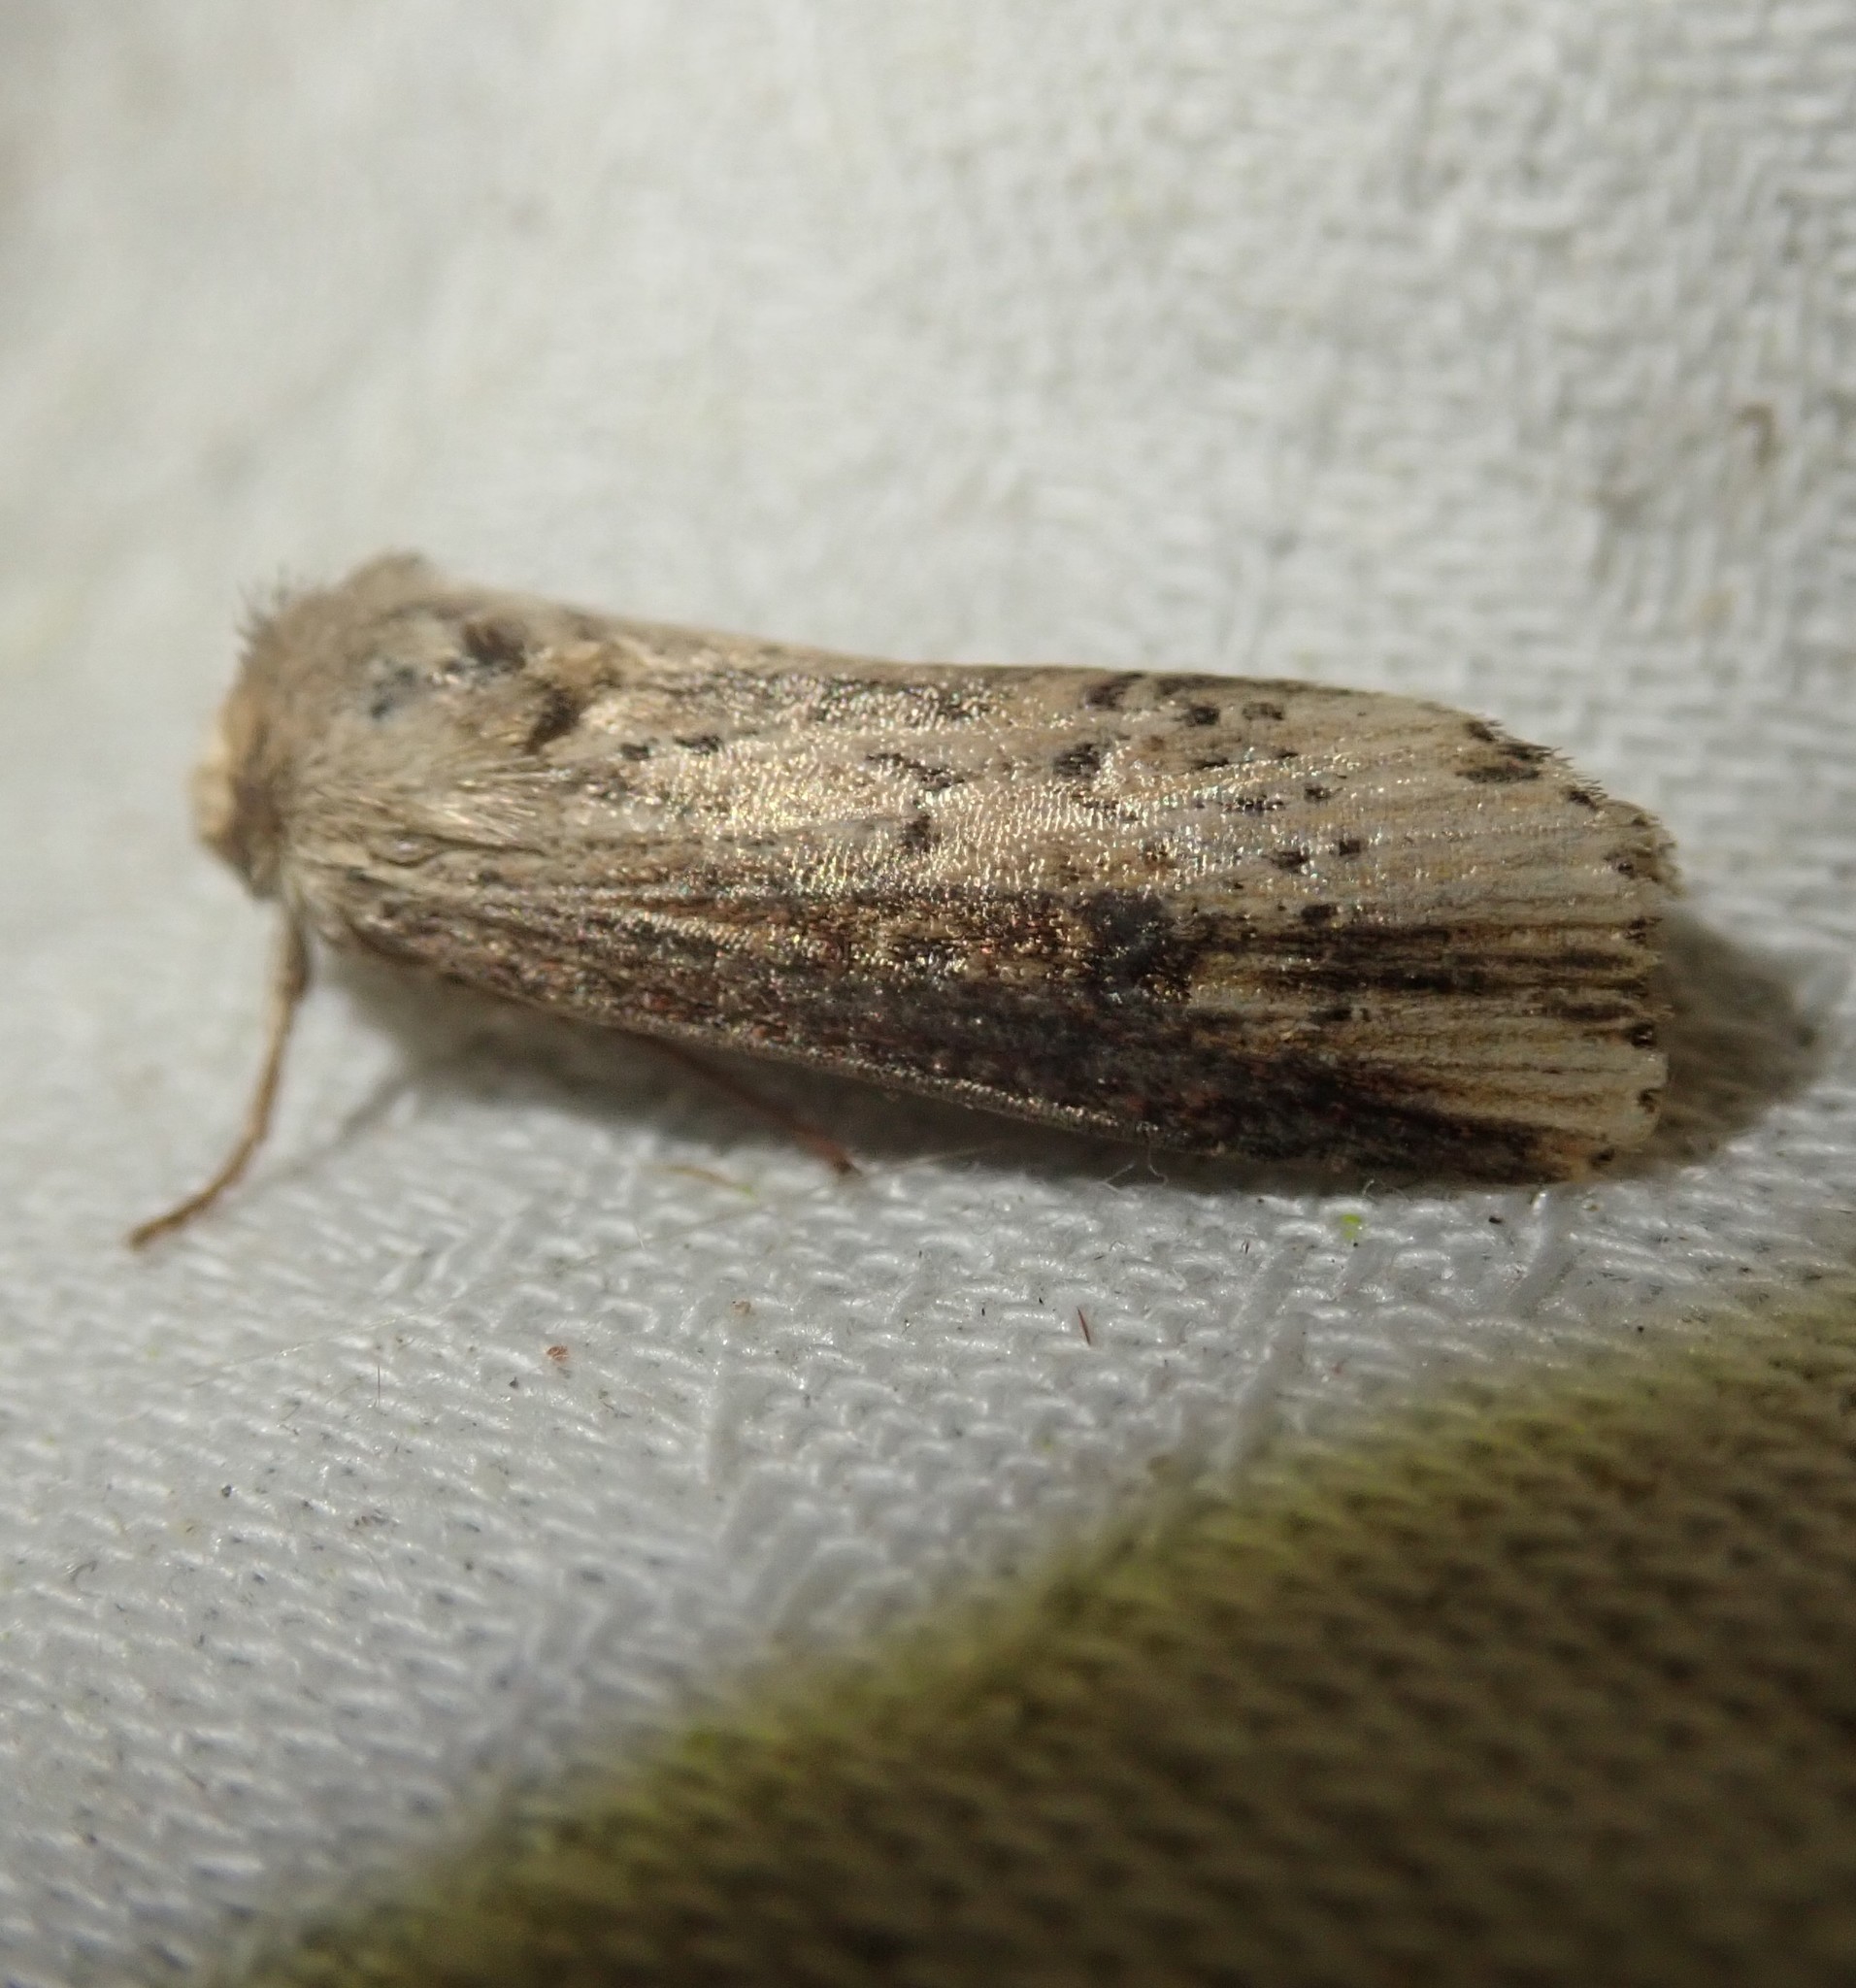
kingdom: Animalia
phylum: Arthropoda
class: Insecta
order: Lepidoptera
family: Noctuidae
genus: Axylia
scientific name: Axylia putris
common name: Flame
